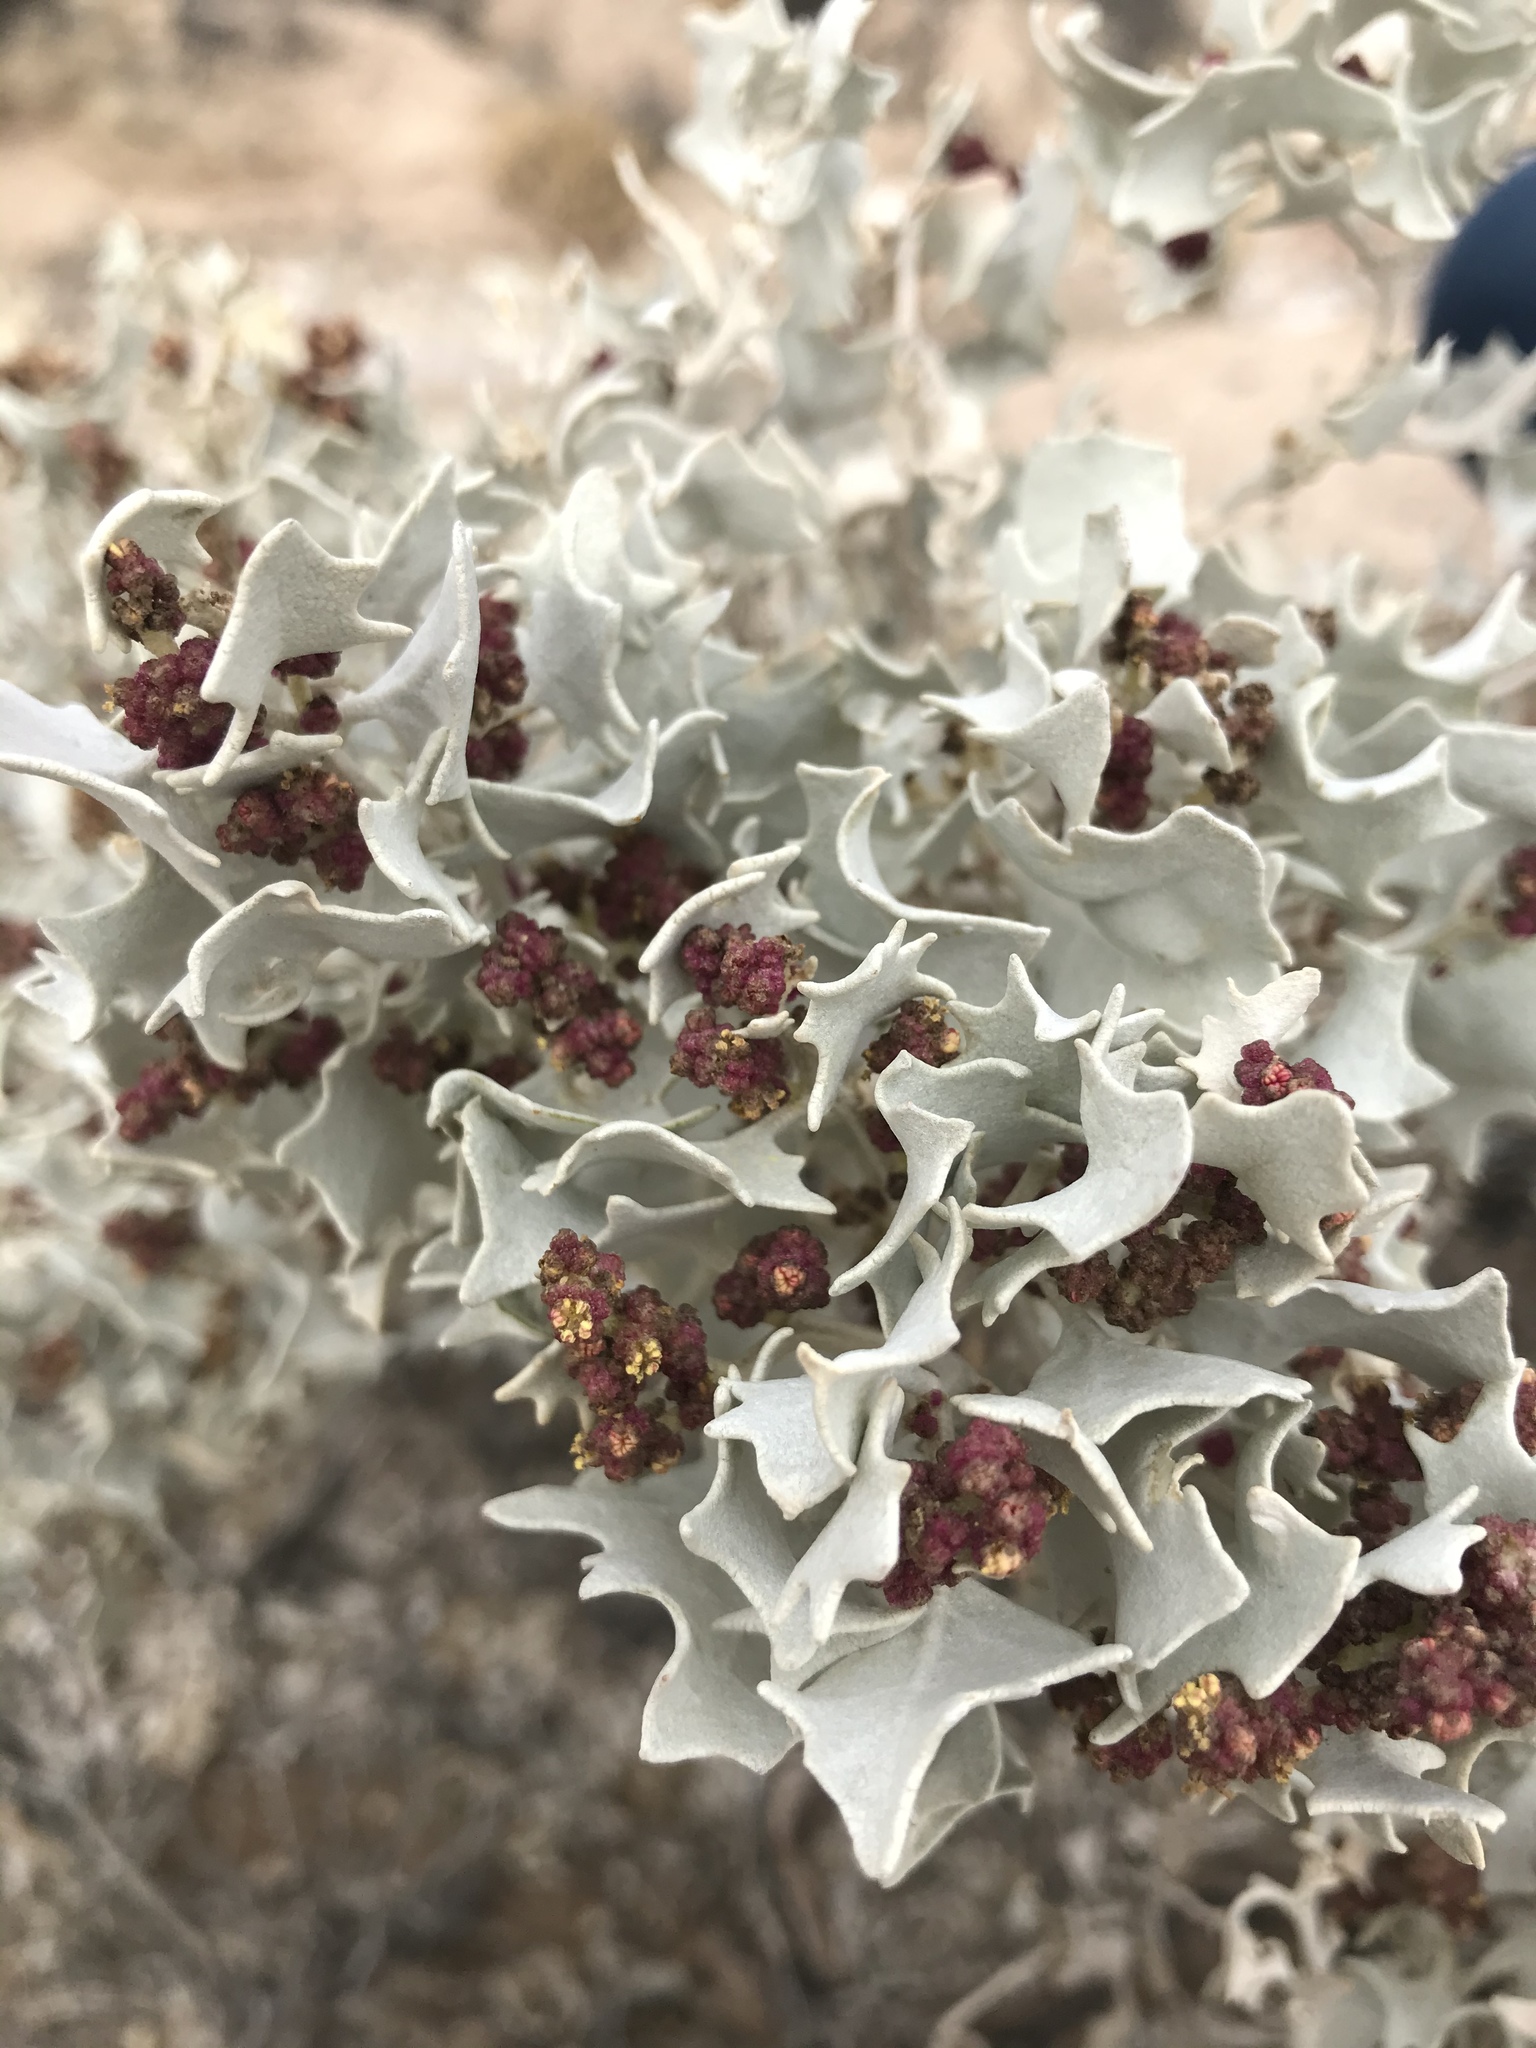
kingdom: Plantae
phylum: Tracheophyta
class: Magnoliopsida
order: Caryophyllales
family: Amaranthaceae
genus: Atriplex
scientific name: Atriplex hymenelytra
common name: Desert-holly
